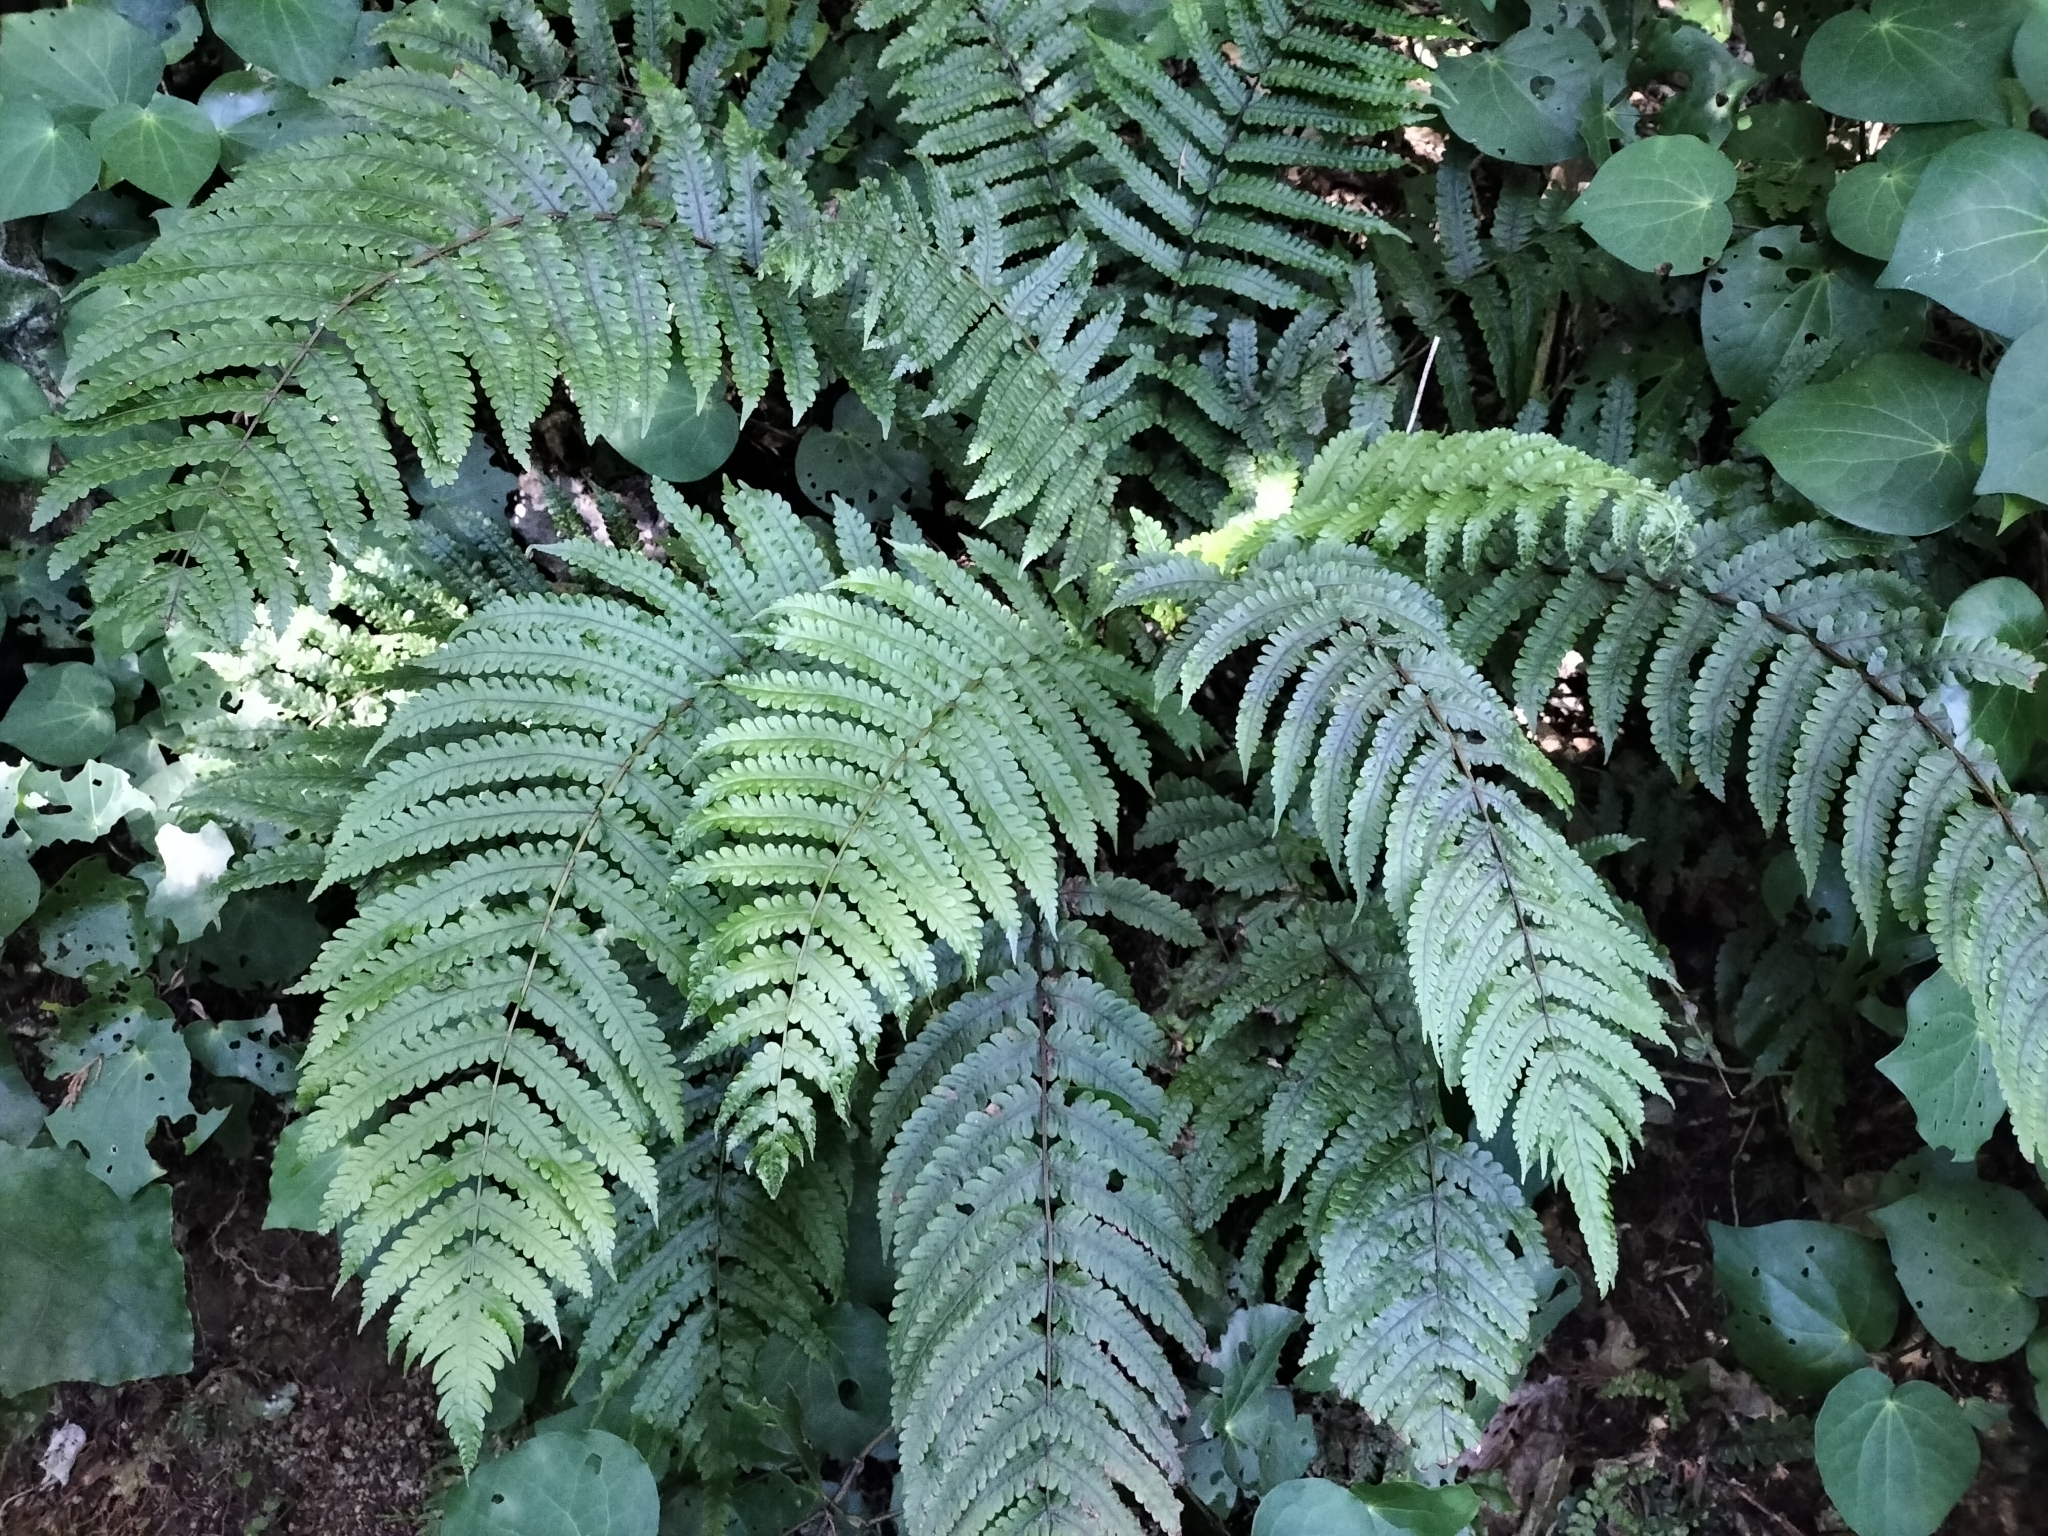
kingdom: Plantae
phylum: Tracheophyta
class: Polypodiopsida
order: Polypodiales
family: Thelypteridaceae
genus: Pakau
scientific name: Pakau pennigera
